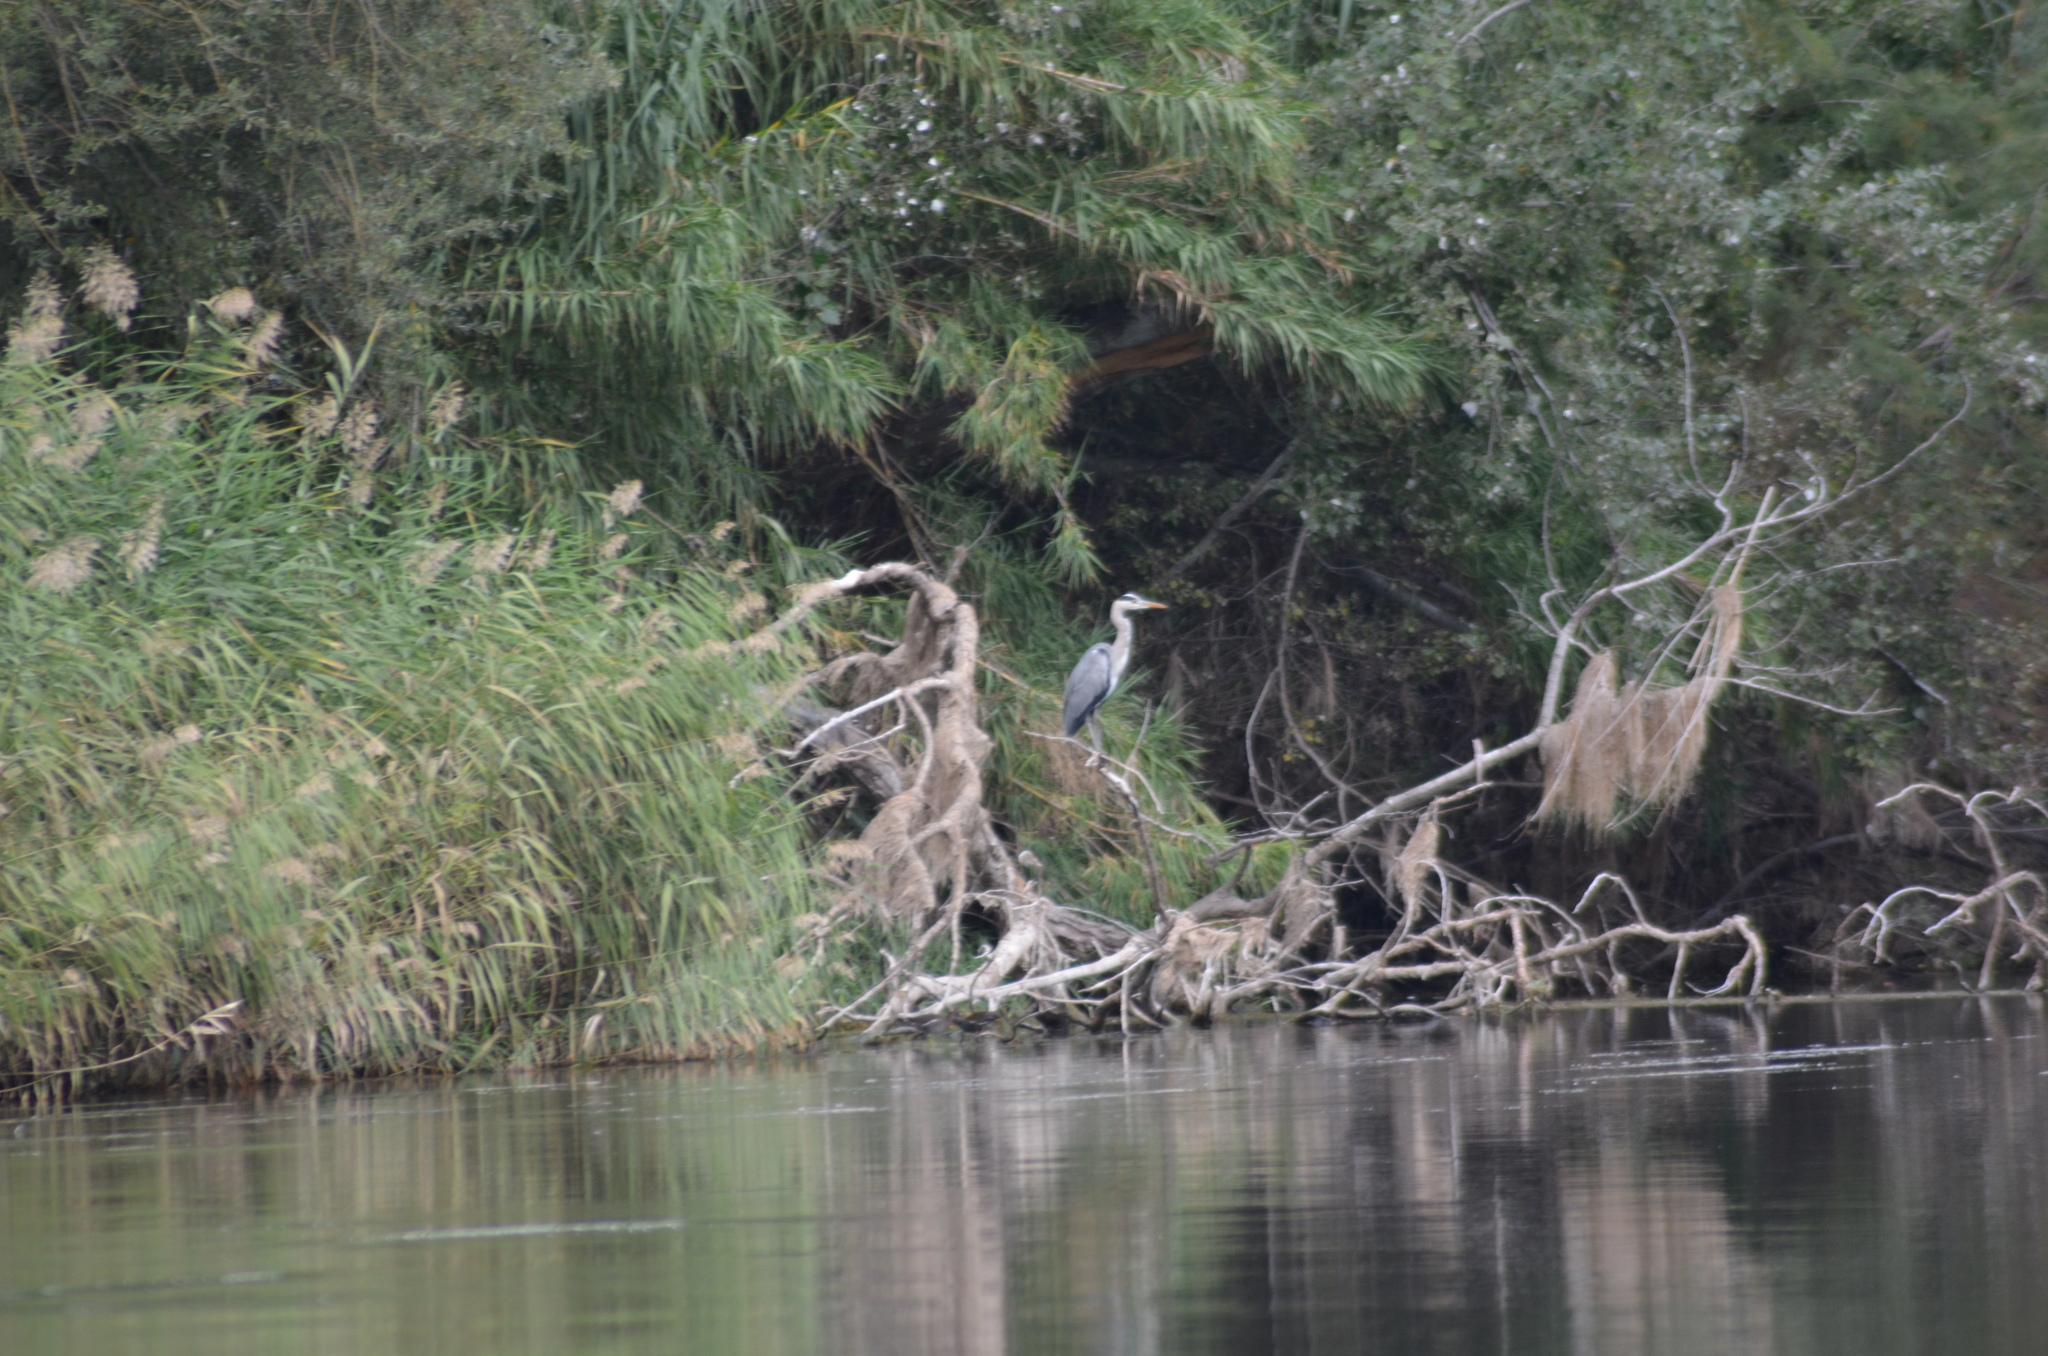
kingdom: Animalia
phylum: Chordata
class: Aves
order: Pelecaniformes
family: Ardeidae
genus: Ardea
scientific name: Ardea cinerea
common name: Grey heron
